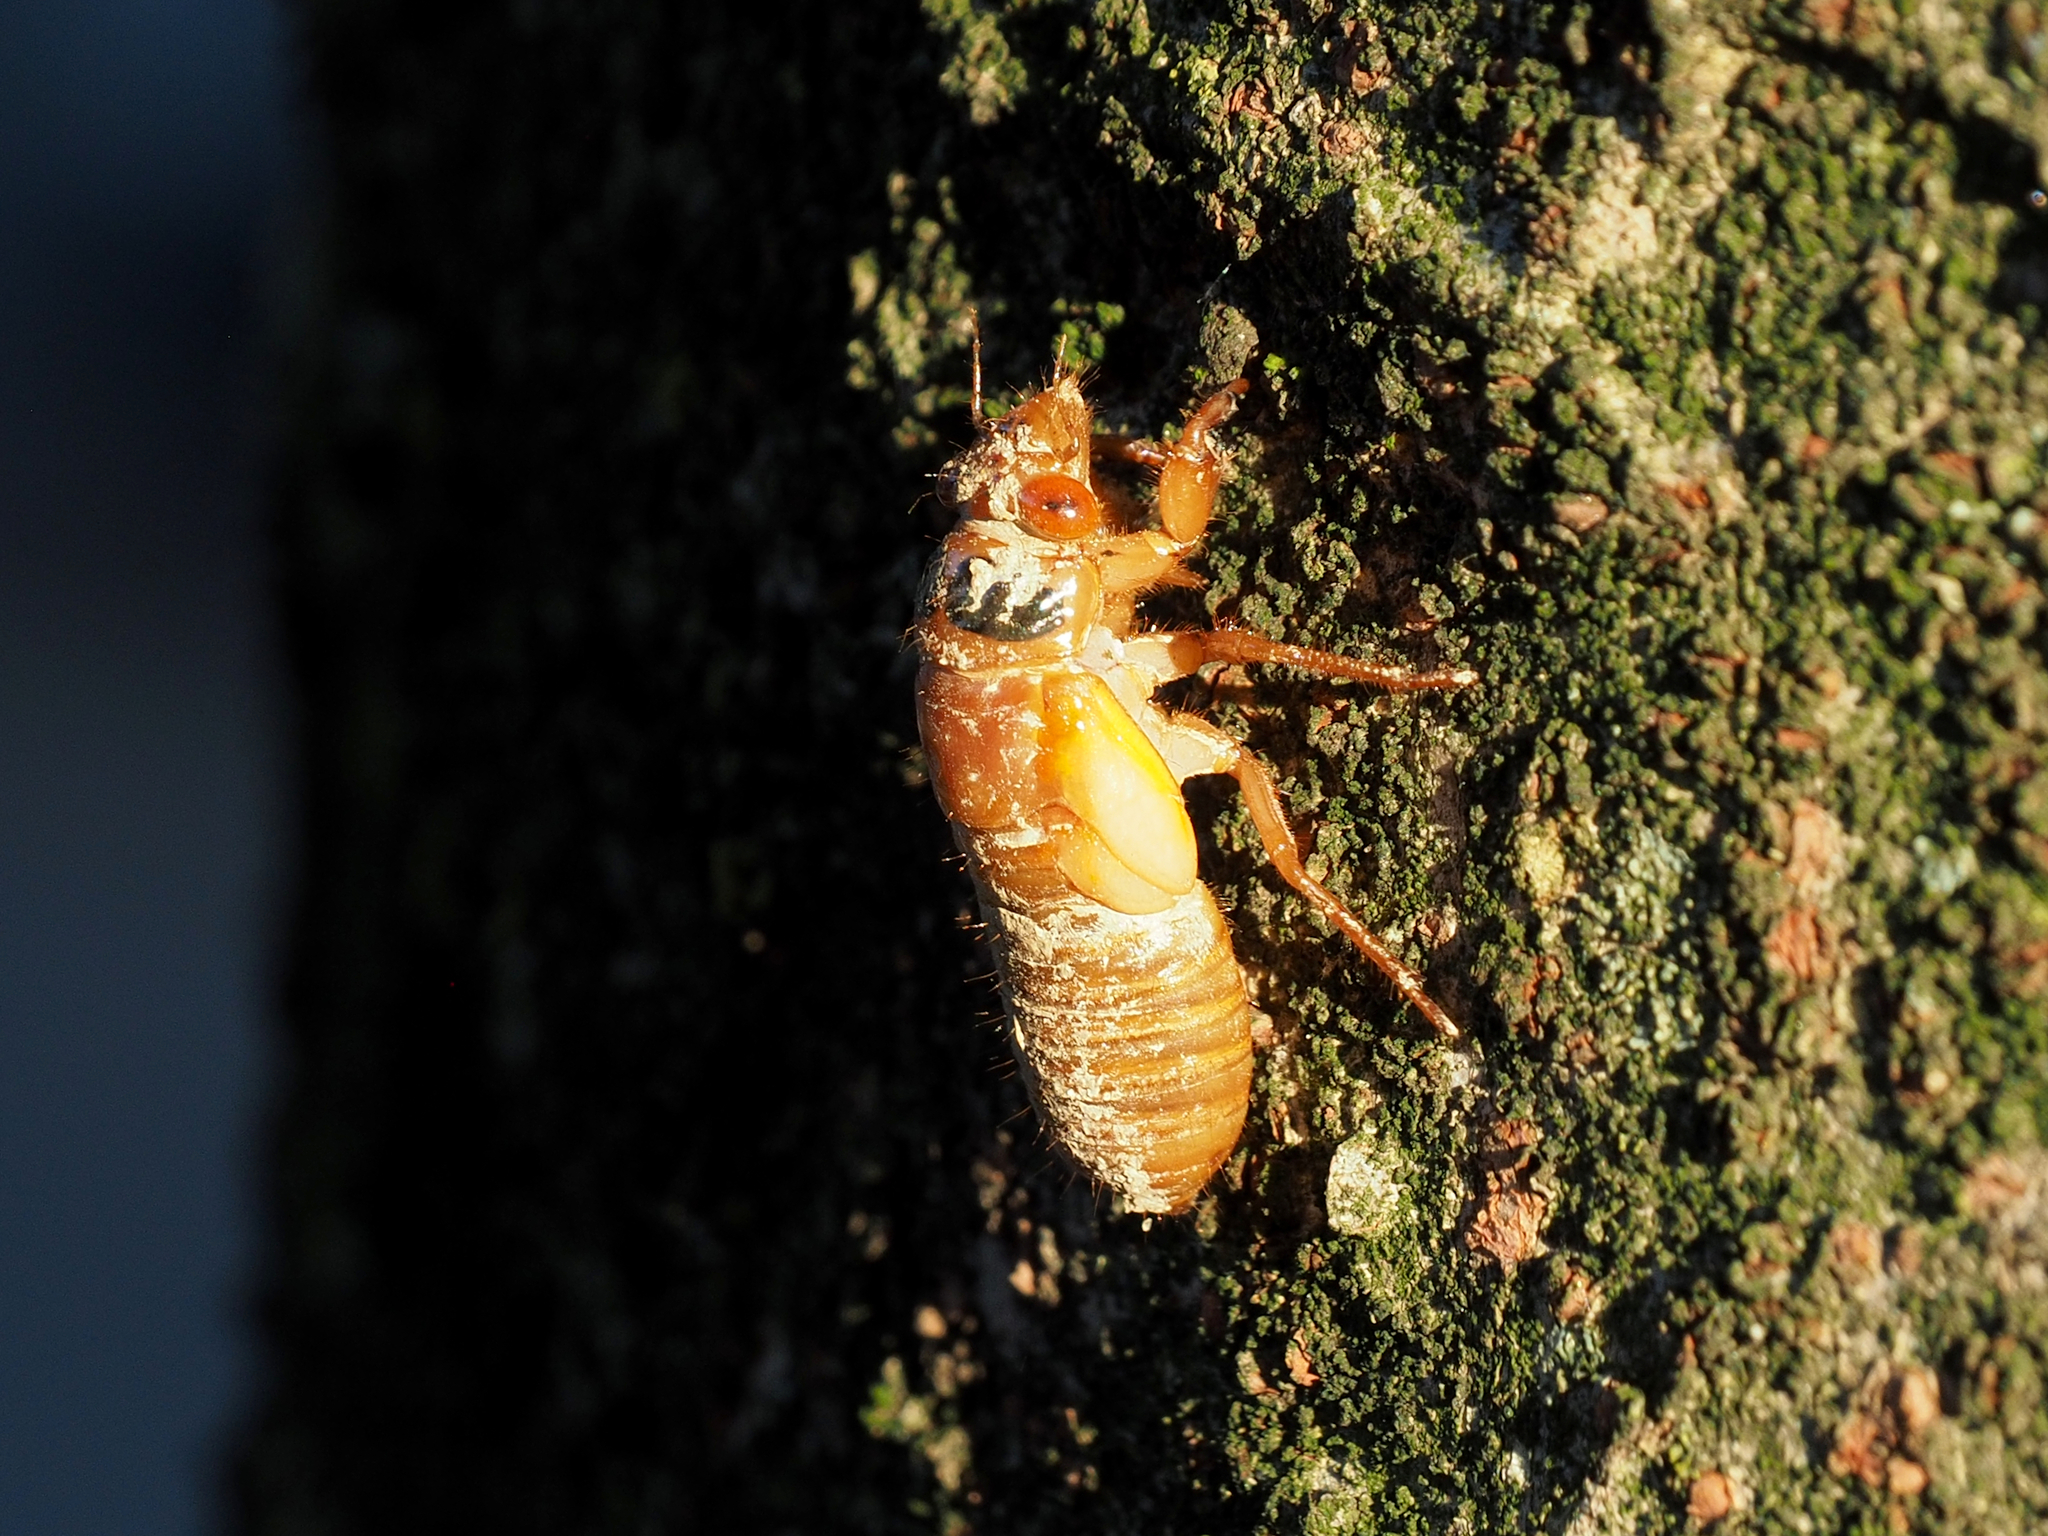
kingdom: Animalia
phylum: Arthropoda
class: Insecta
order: Hemiptera
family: Cicadidae
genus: Magicicada
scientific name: Magicicada
